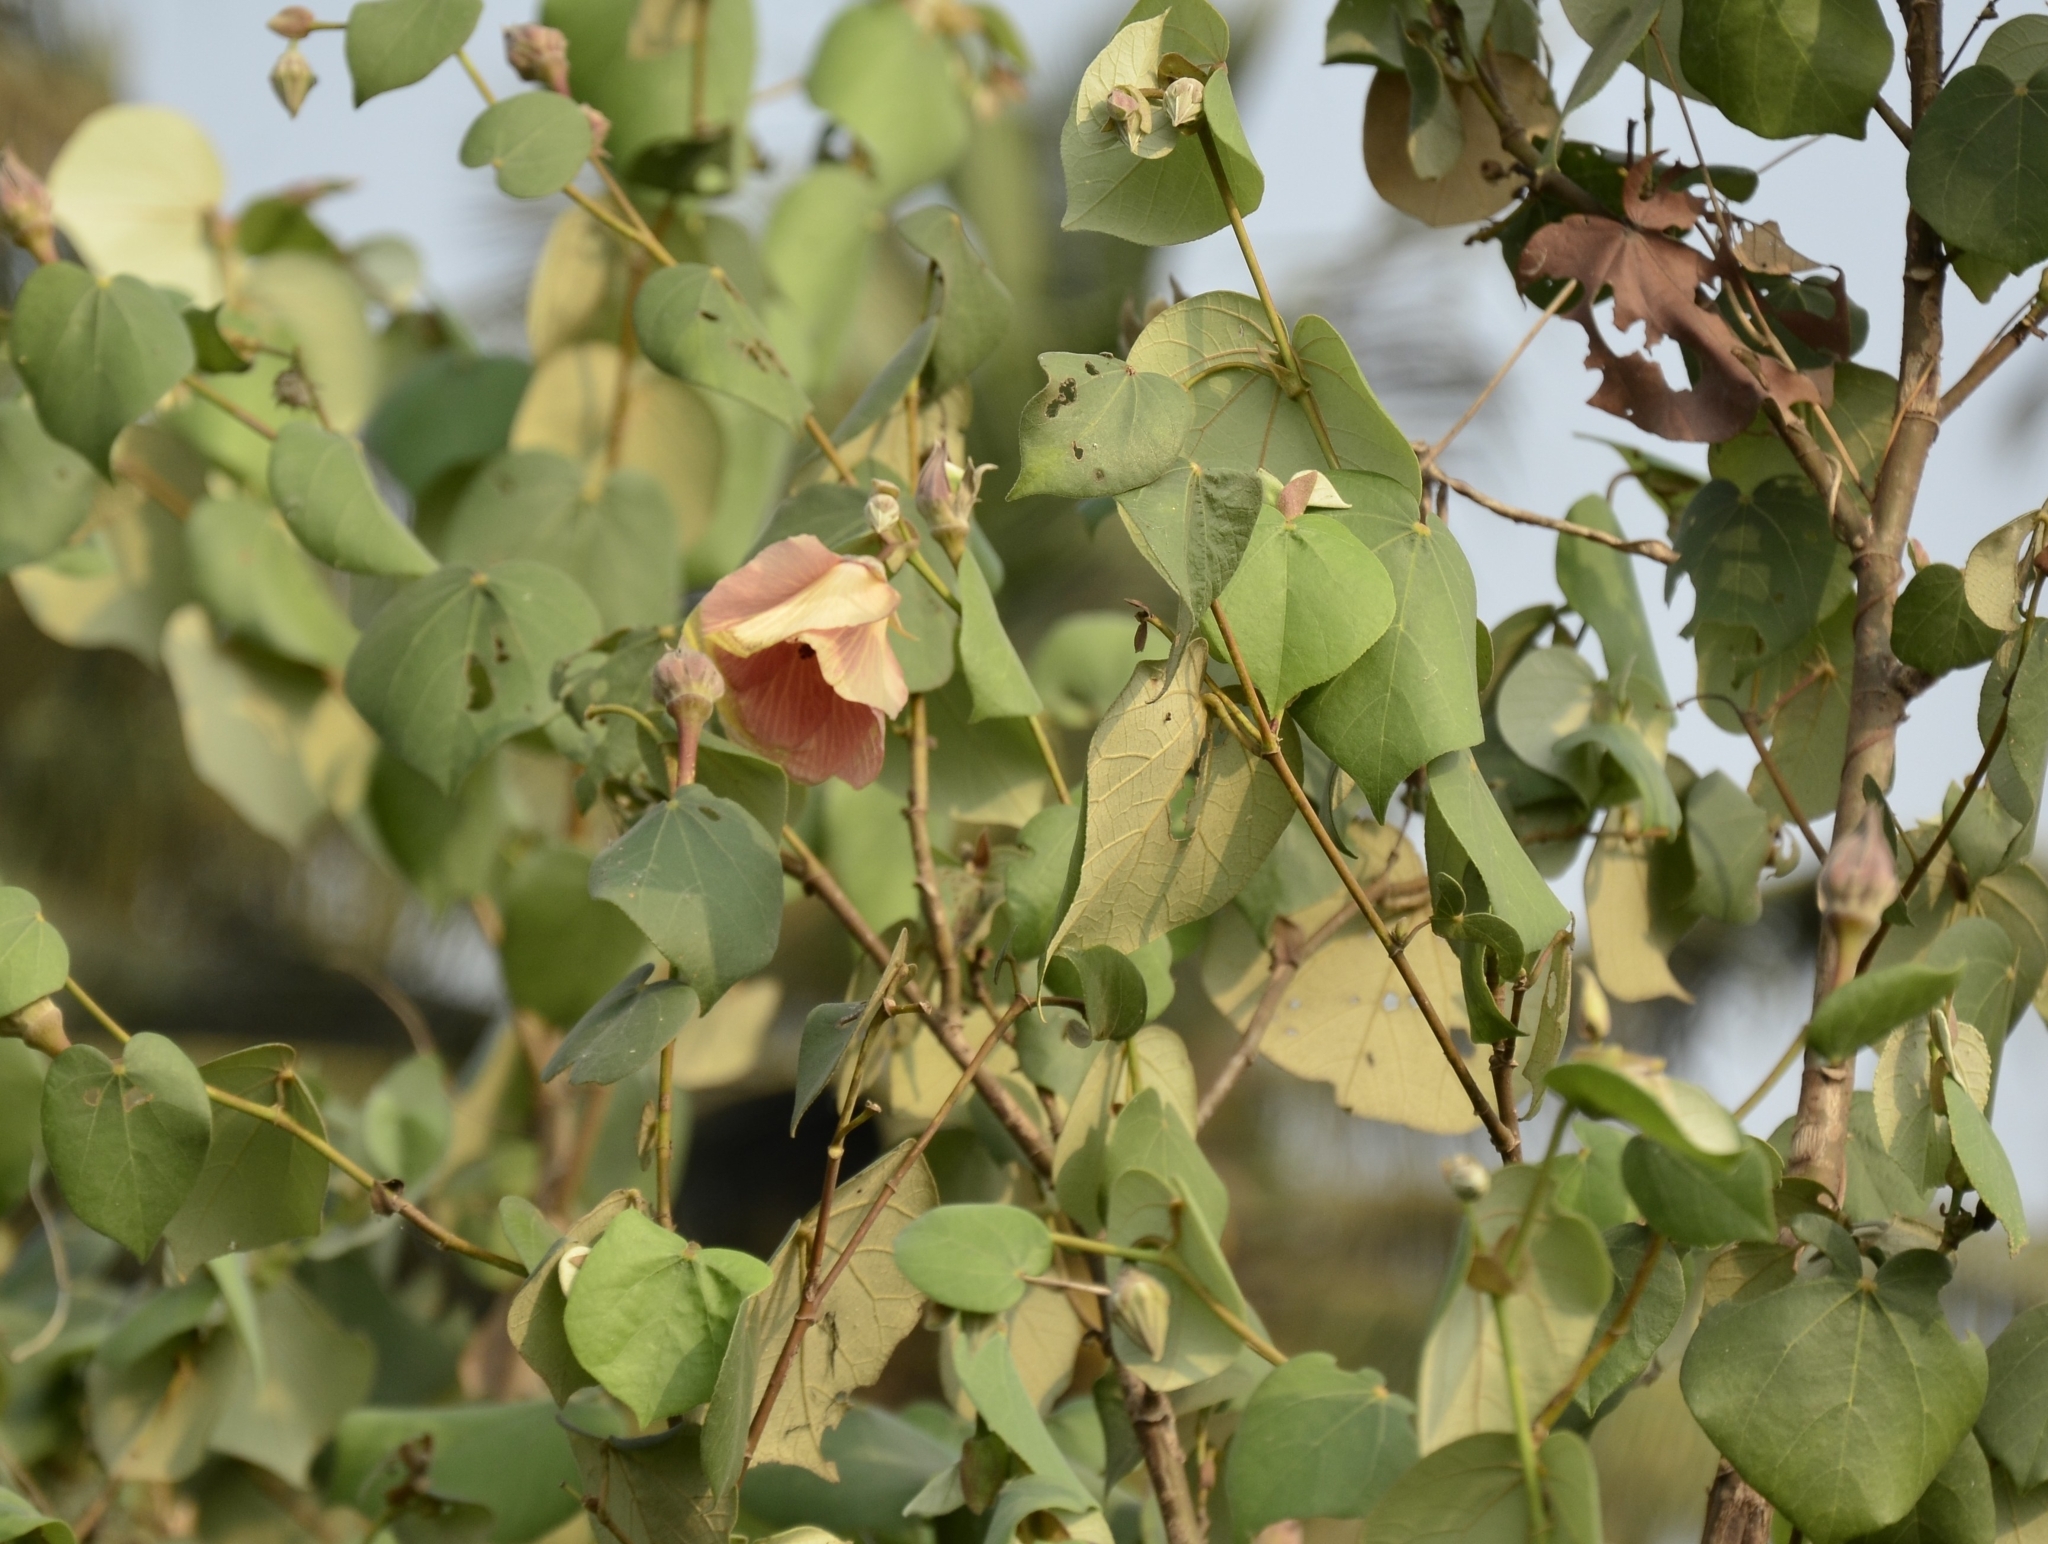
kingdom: Plantae
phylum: Tracheophyta
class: Magnoliopsida
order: Malvales
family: Malvaceae
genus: Talipariti
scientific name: Talipariti tiliaceum
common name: Sea hibiscus
